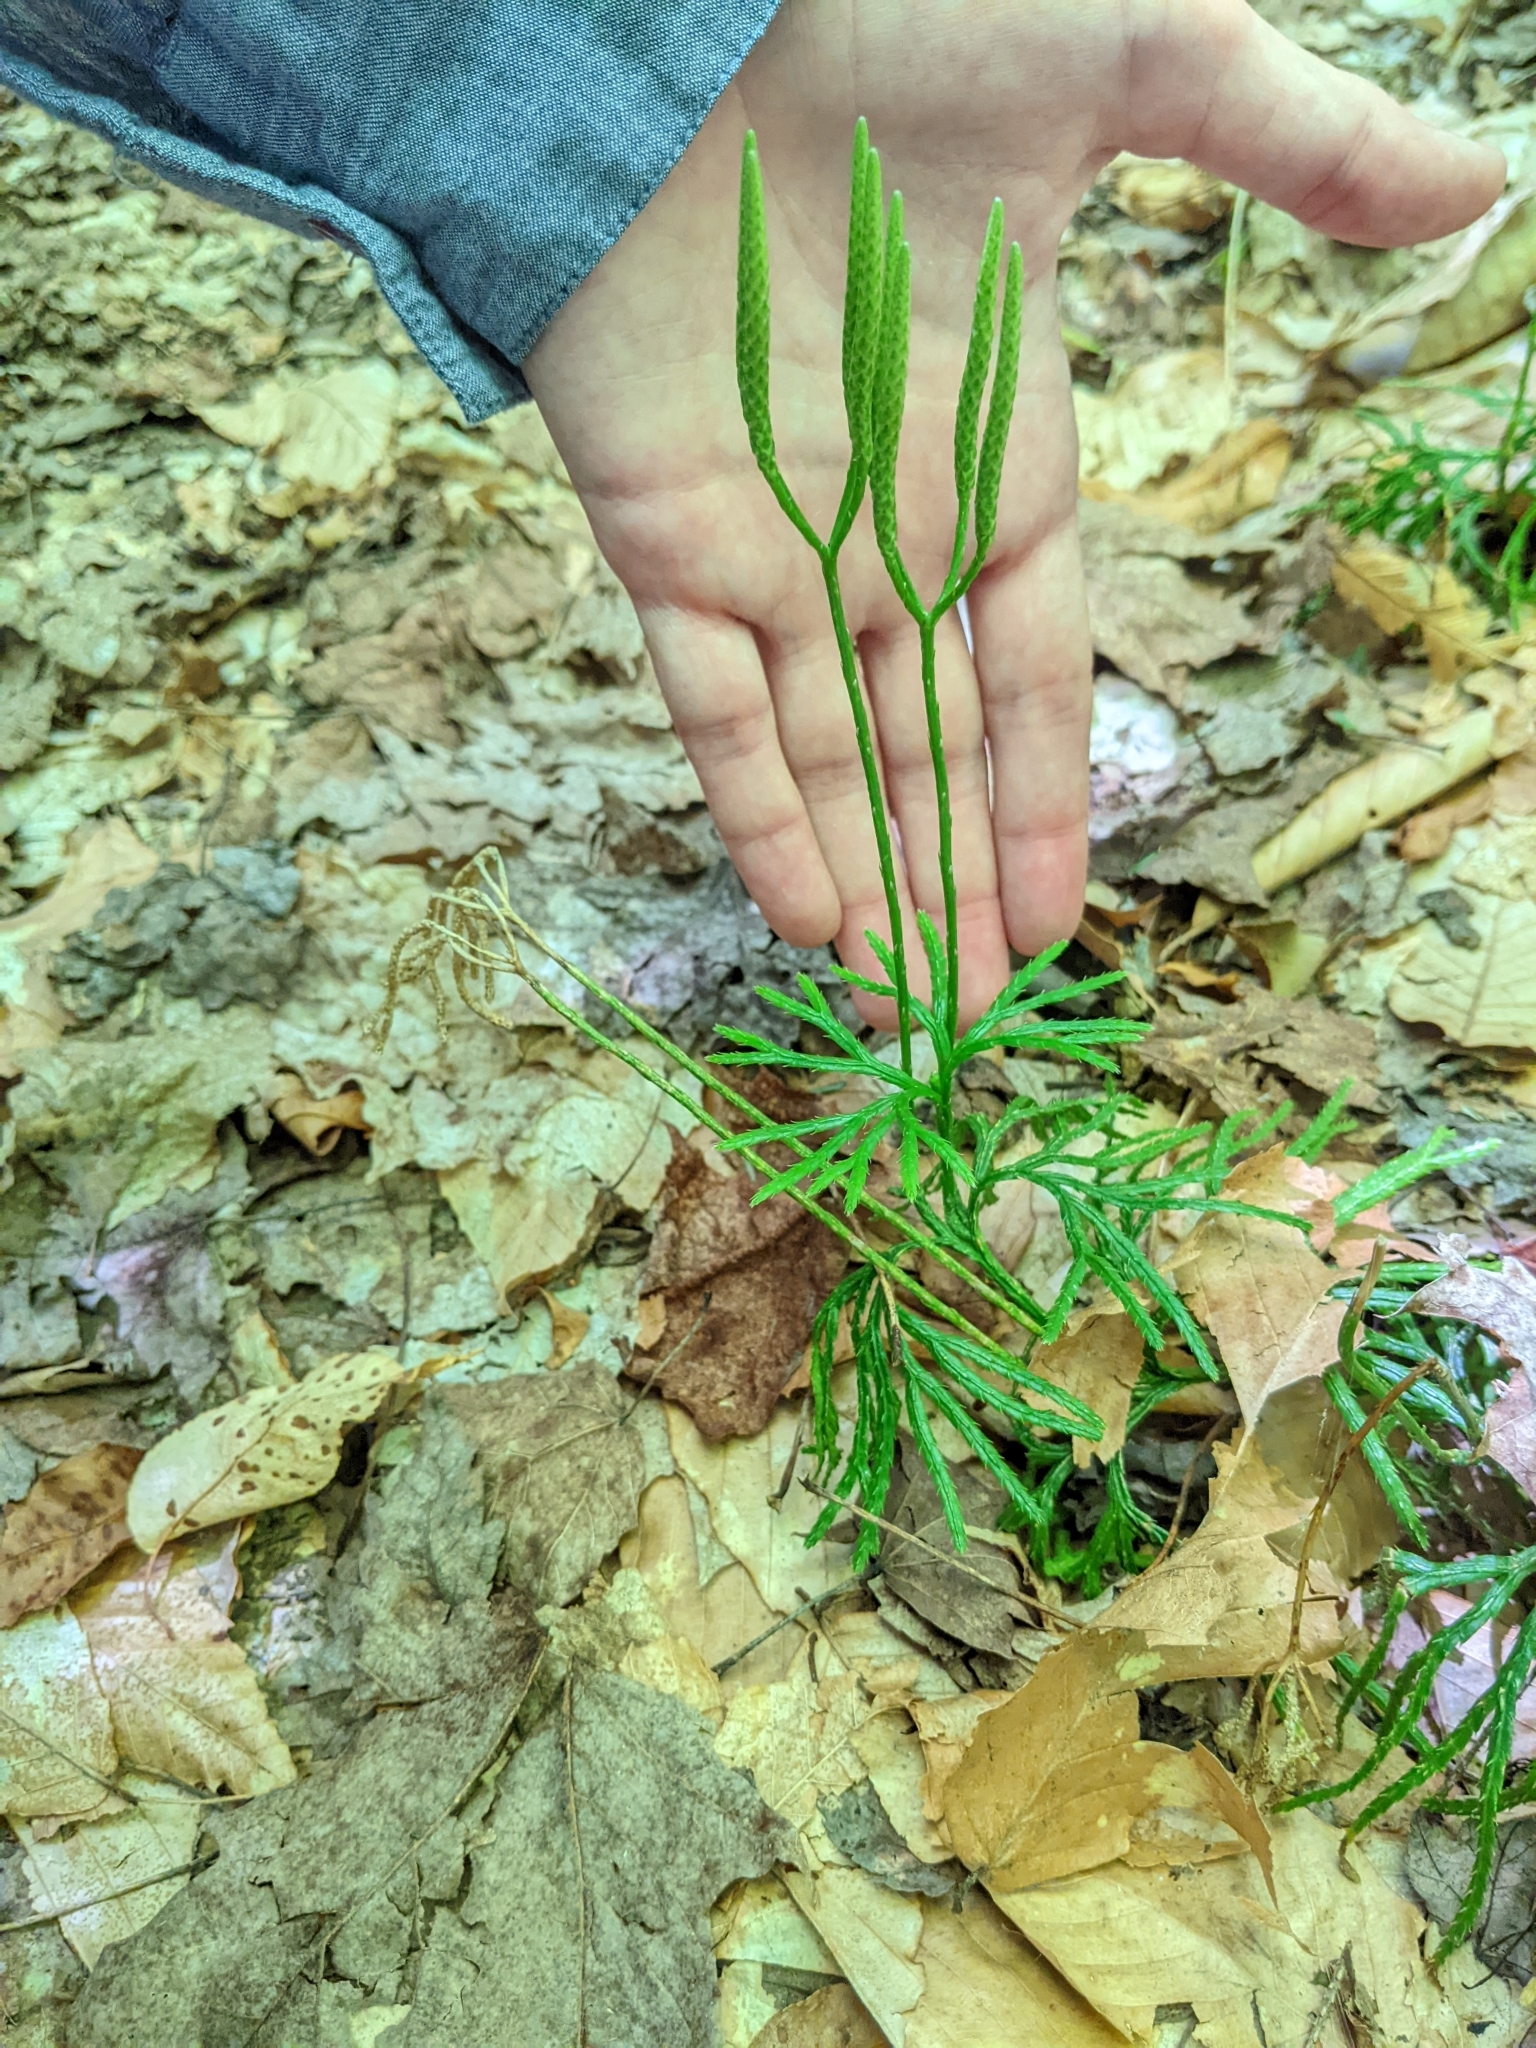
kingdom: Plantae
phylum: Tracheophyta
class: Lycopodiopsida
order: Lycopodiales
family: Lycopodiaceae
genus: Diphasiastrum
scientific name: Diphasiastrum digitatum
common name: Southern running-pine
